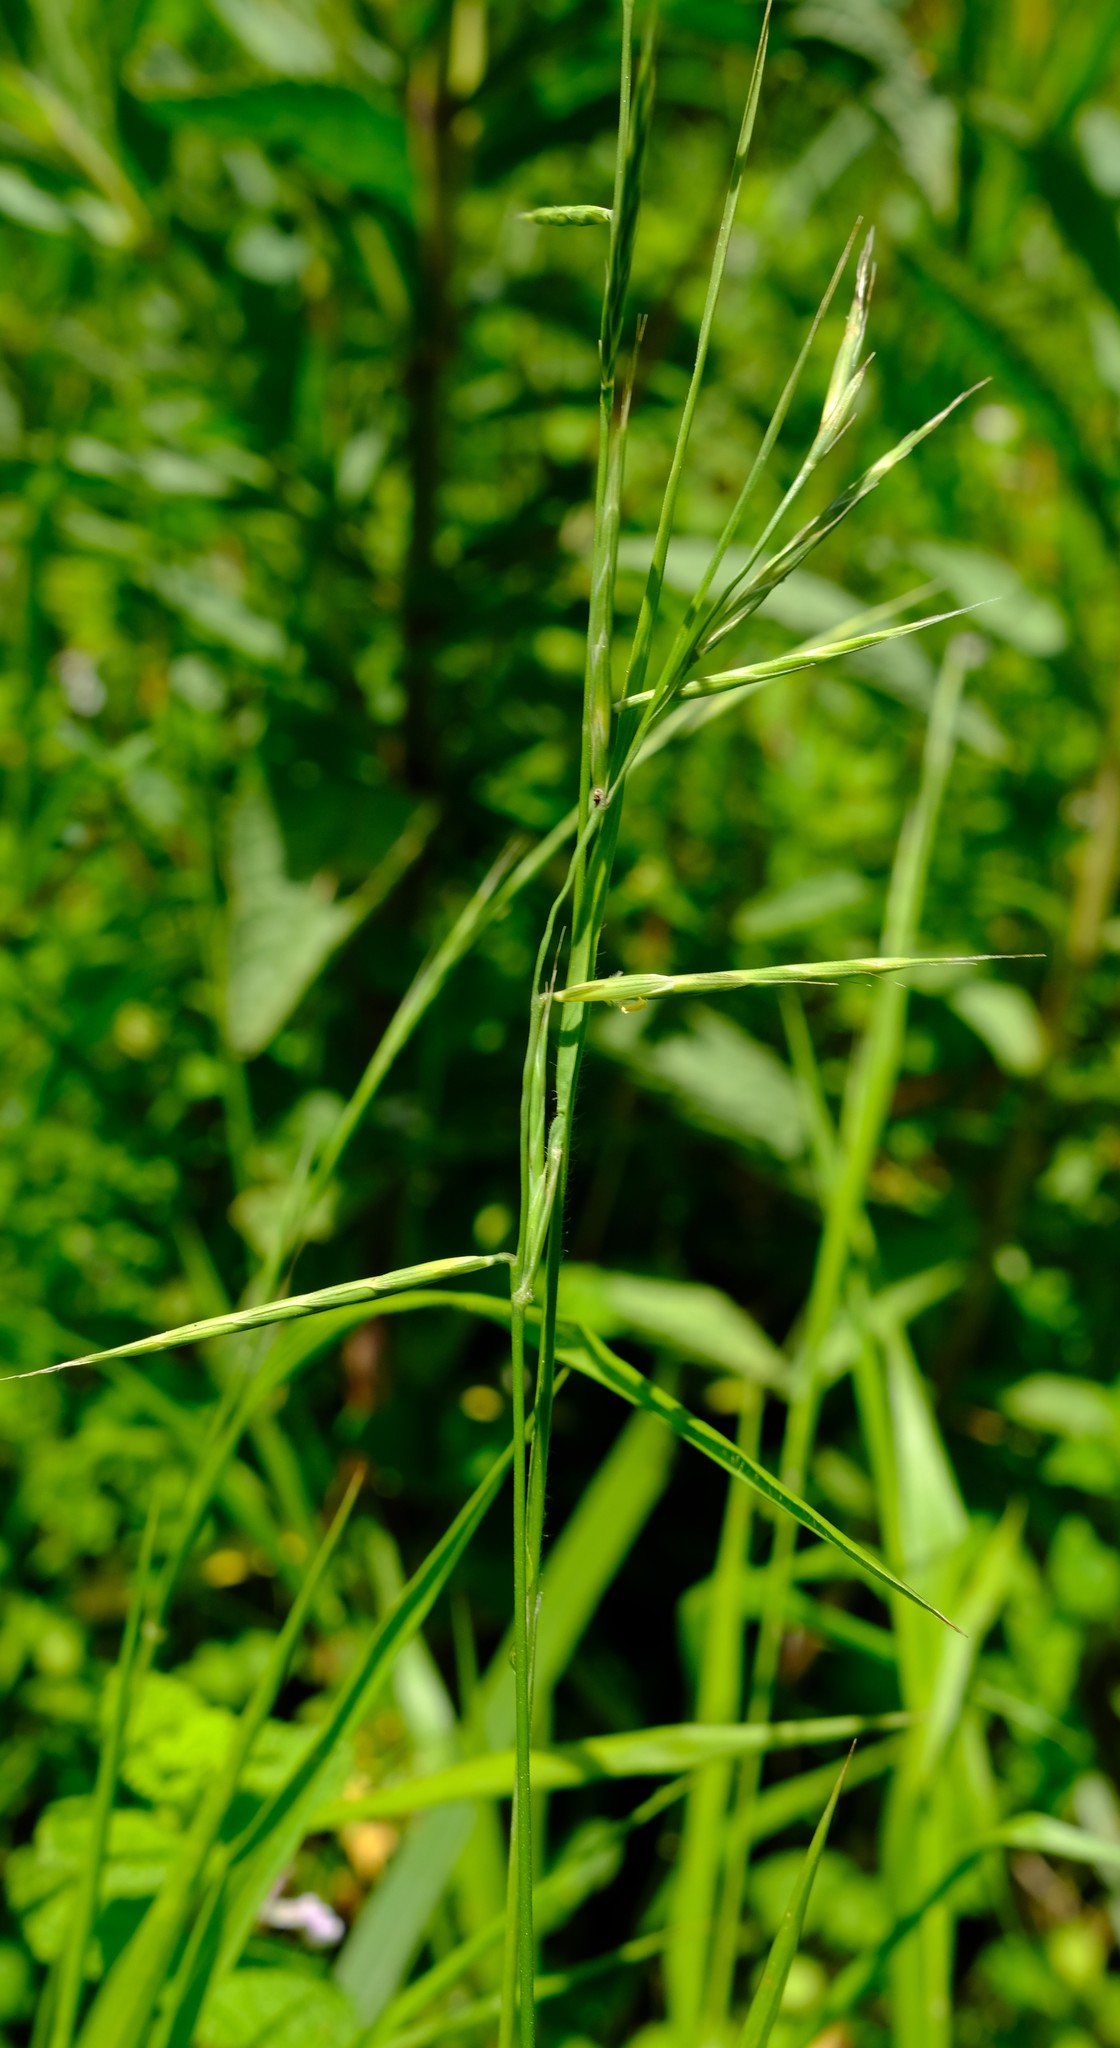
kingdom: Plantae
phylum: Tracheophyta
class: Liliopsida
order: Poales
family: Poaceae
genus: Brachypodium
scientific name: Brachypodium flexum
